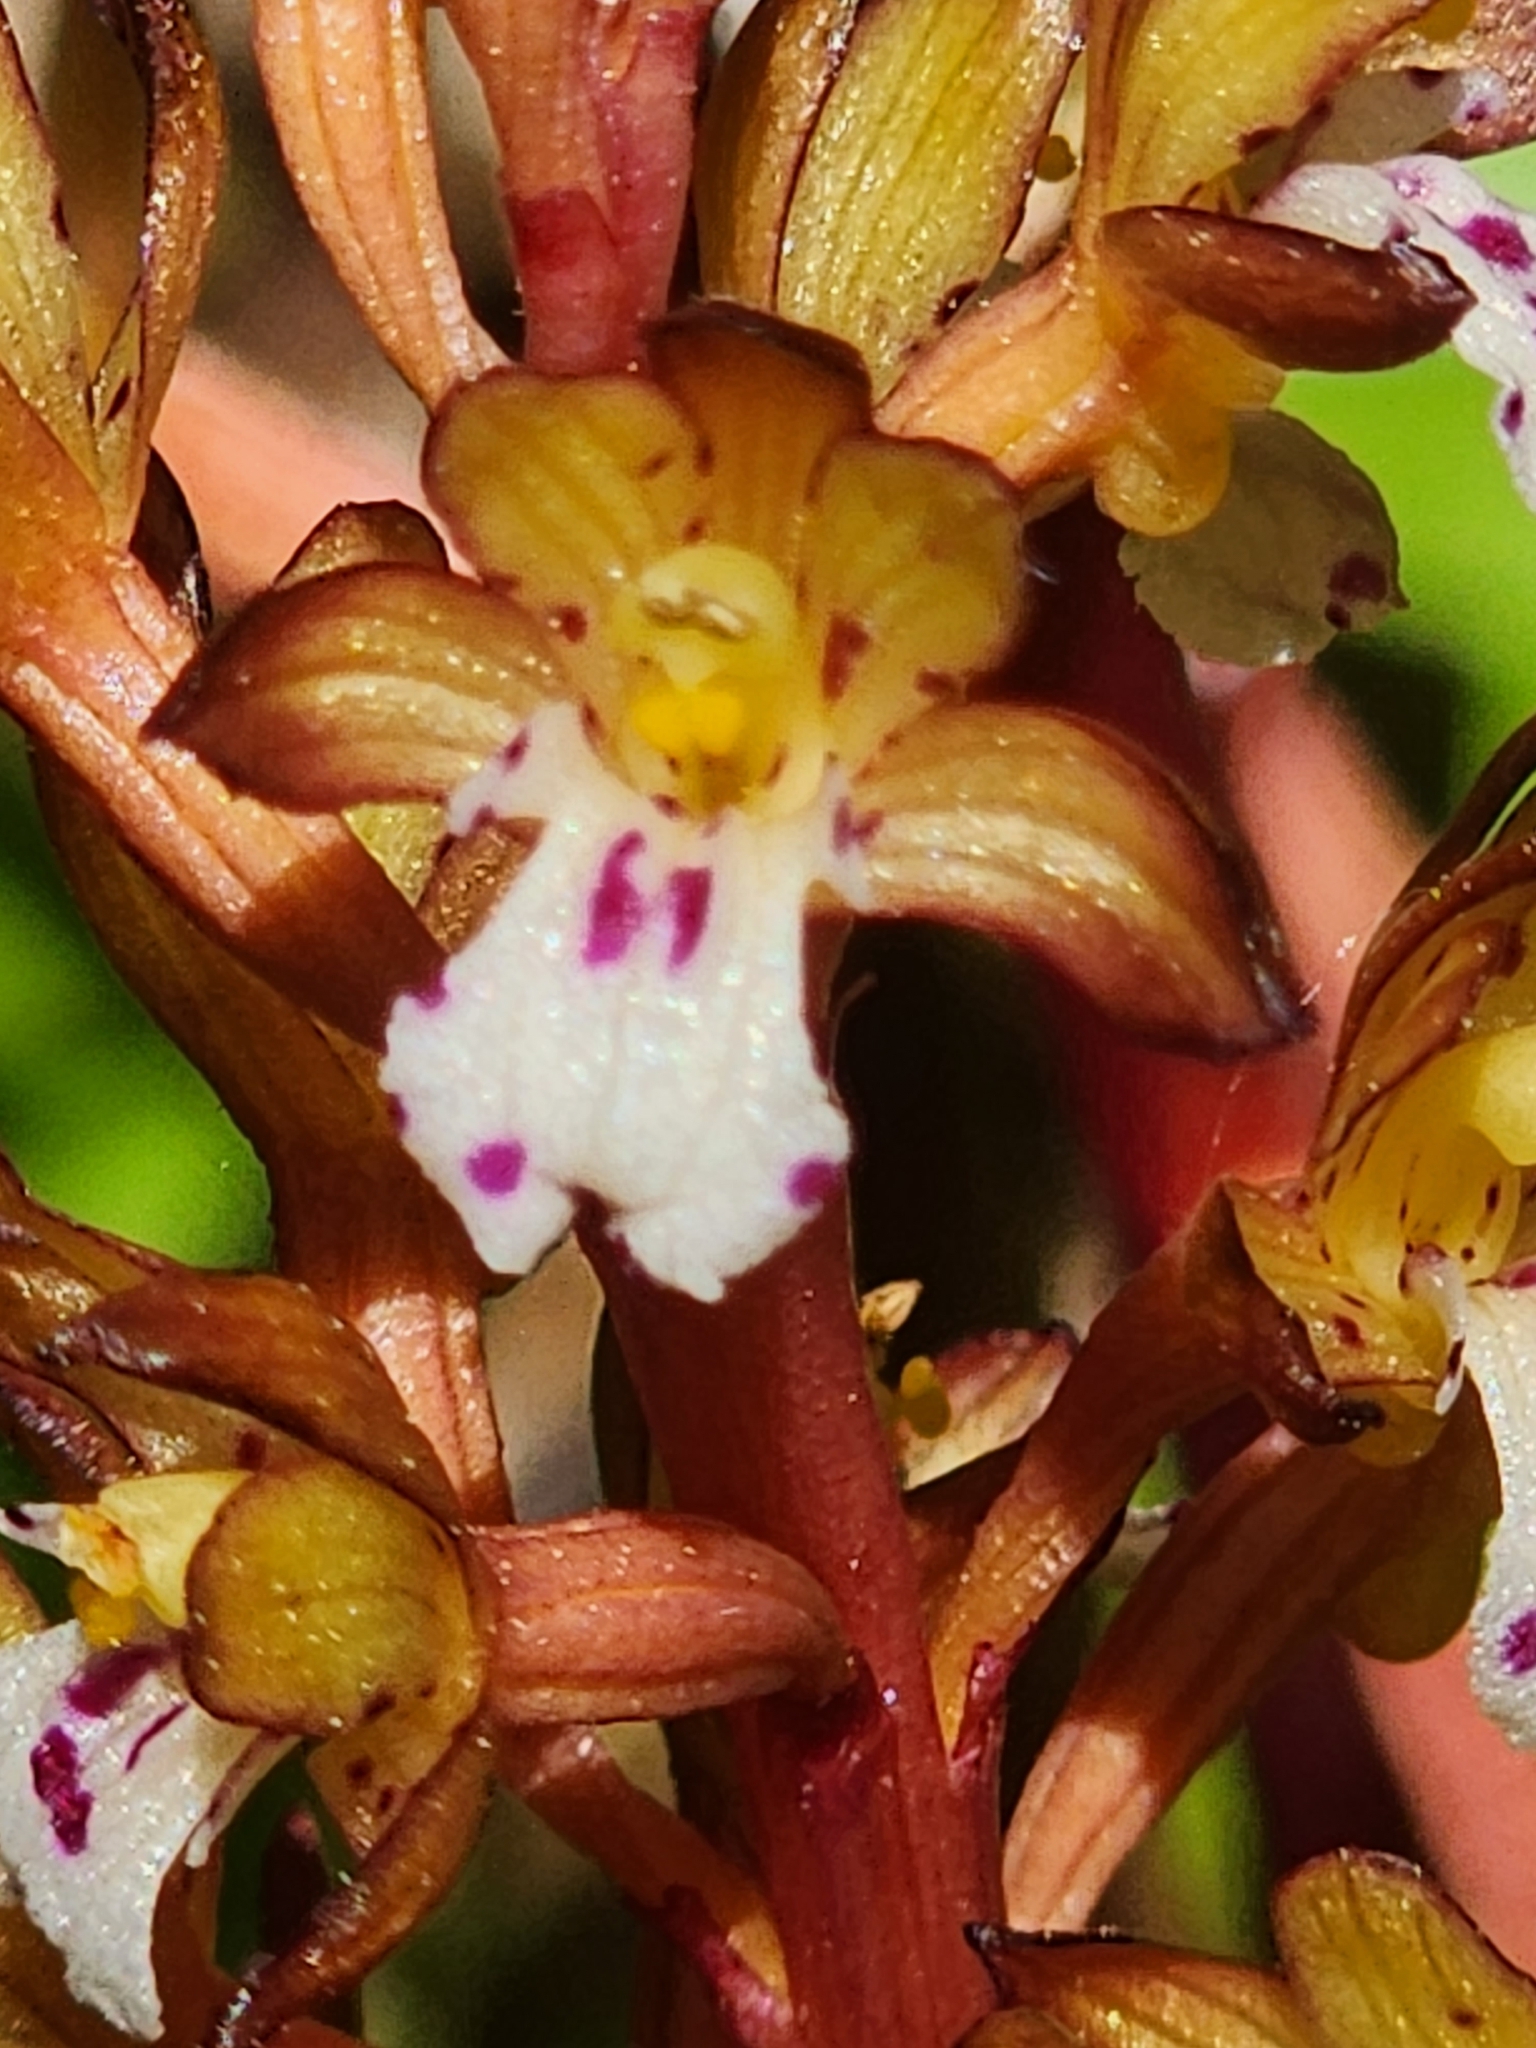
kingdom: Plantae
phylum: Tracheophyta
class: Liliopsida
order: Asparagales
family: Orchidaceae
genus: Corallorhiza
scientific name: Corallorhiza maculata
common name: Spotted coralroot
